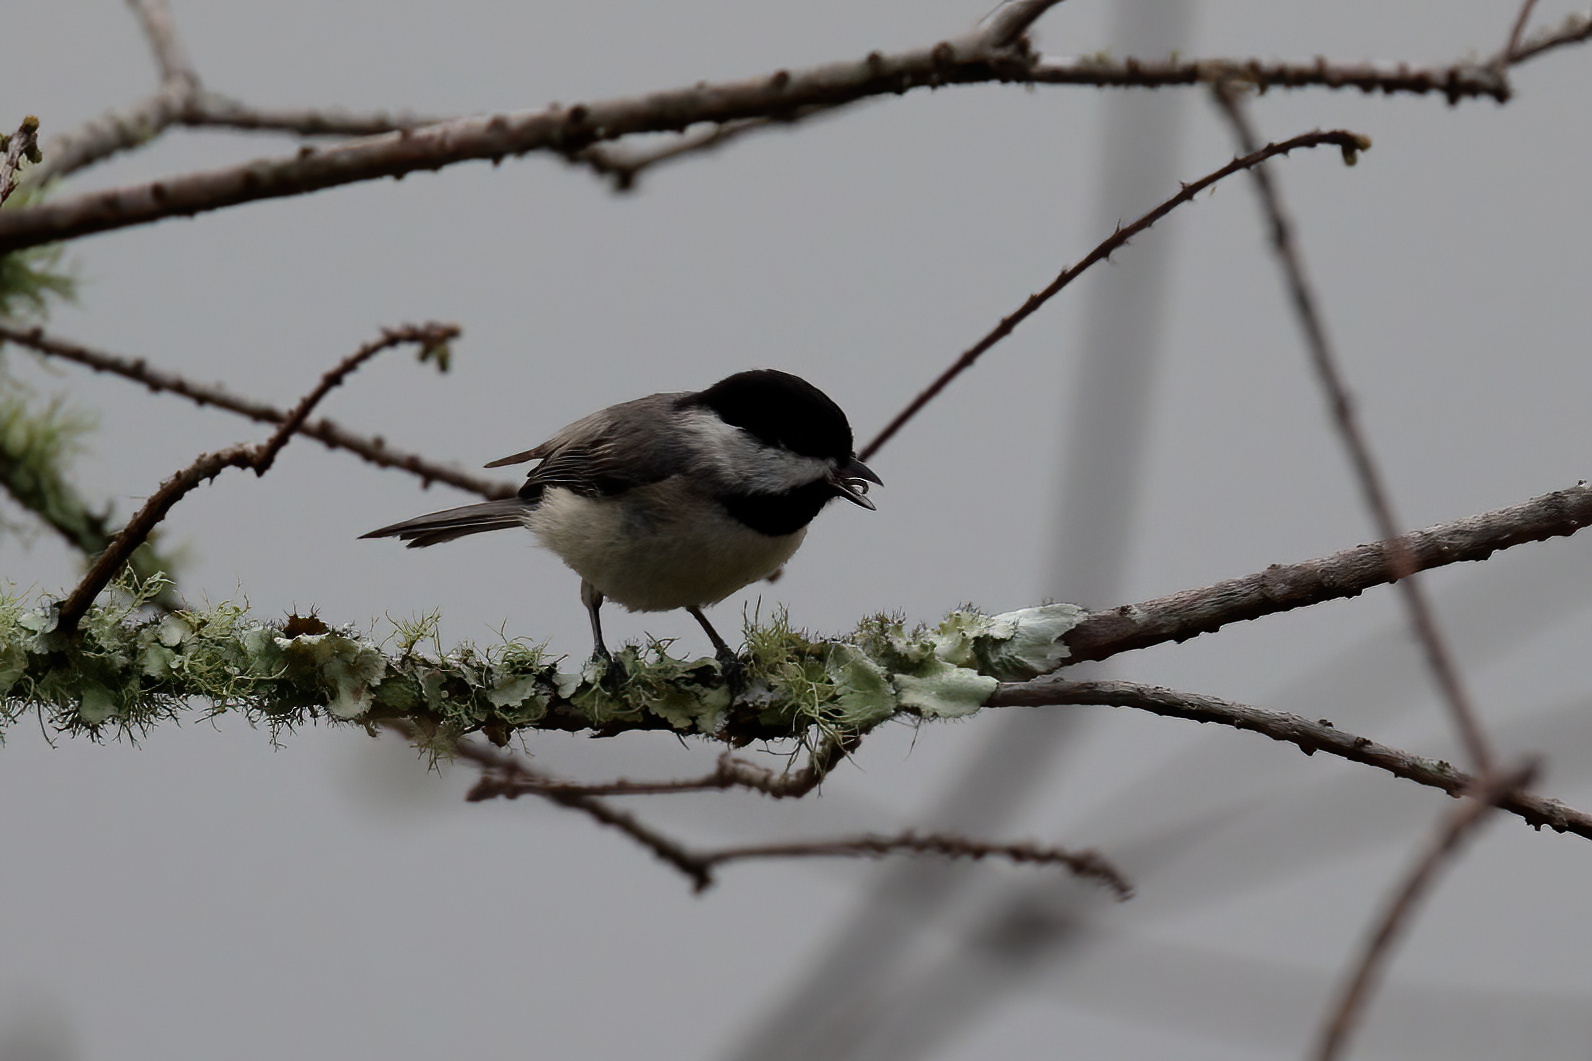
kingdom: Animalia
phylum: Chordata
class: Aves
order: Passeriformes
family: Paridae
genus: Poecile
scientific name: Poecile carolinensis
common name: Carolina chickadee
